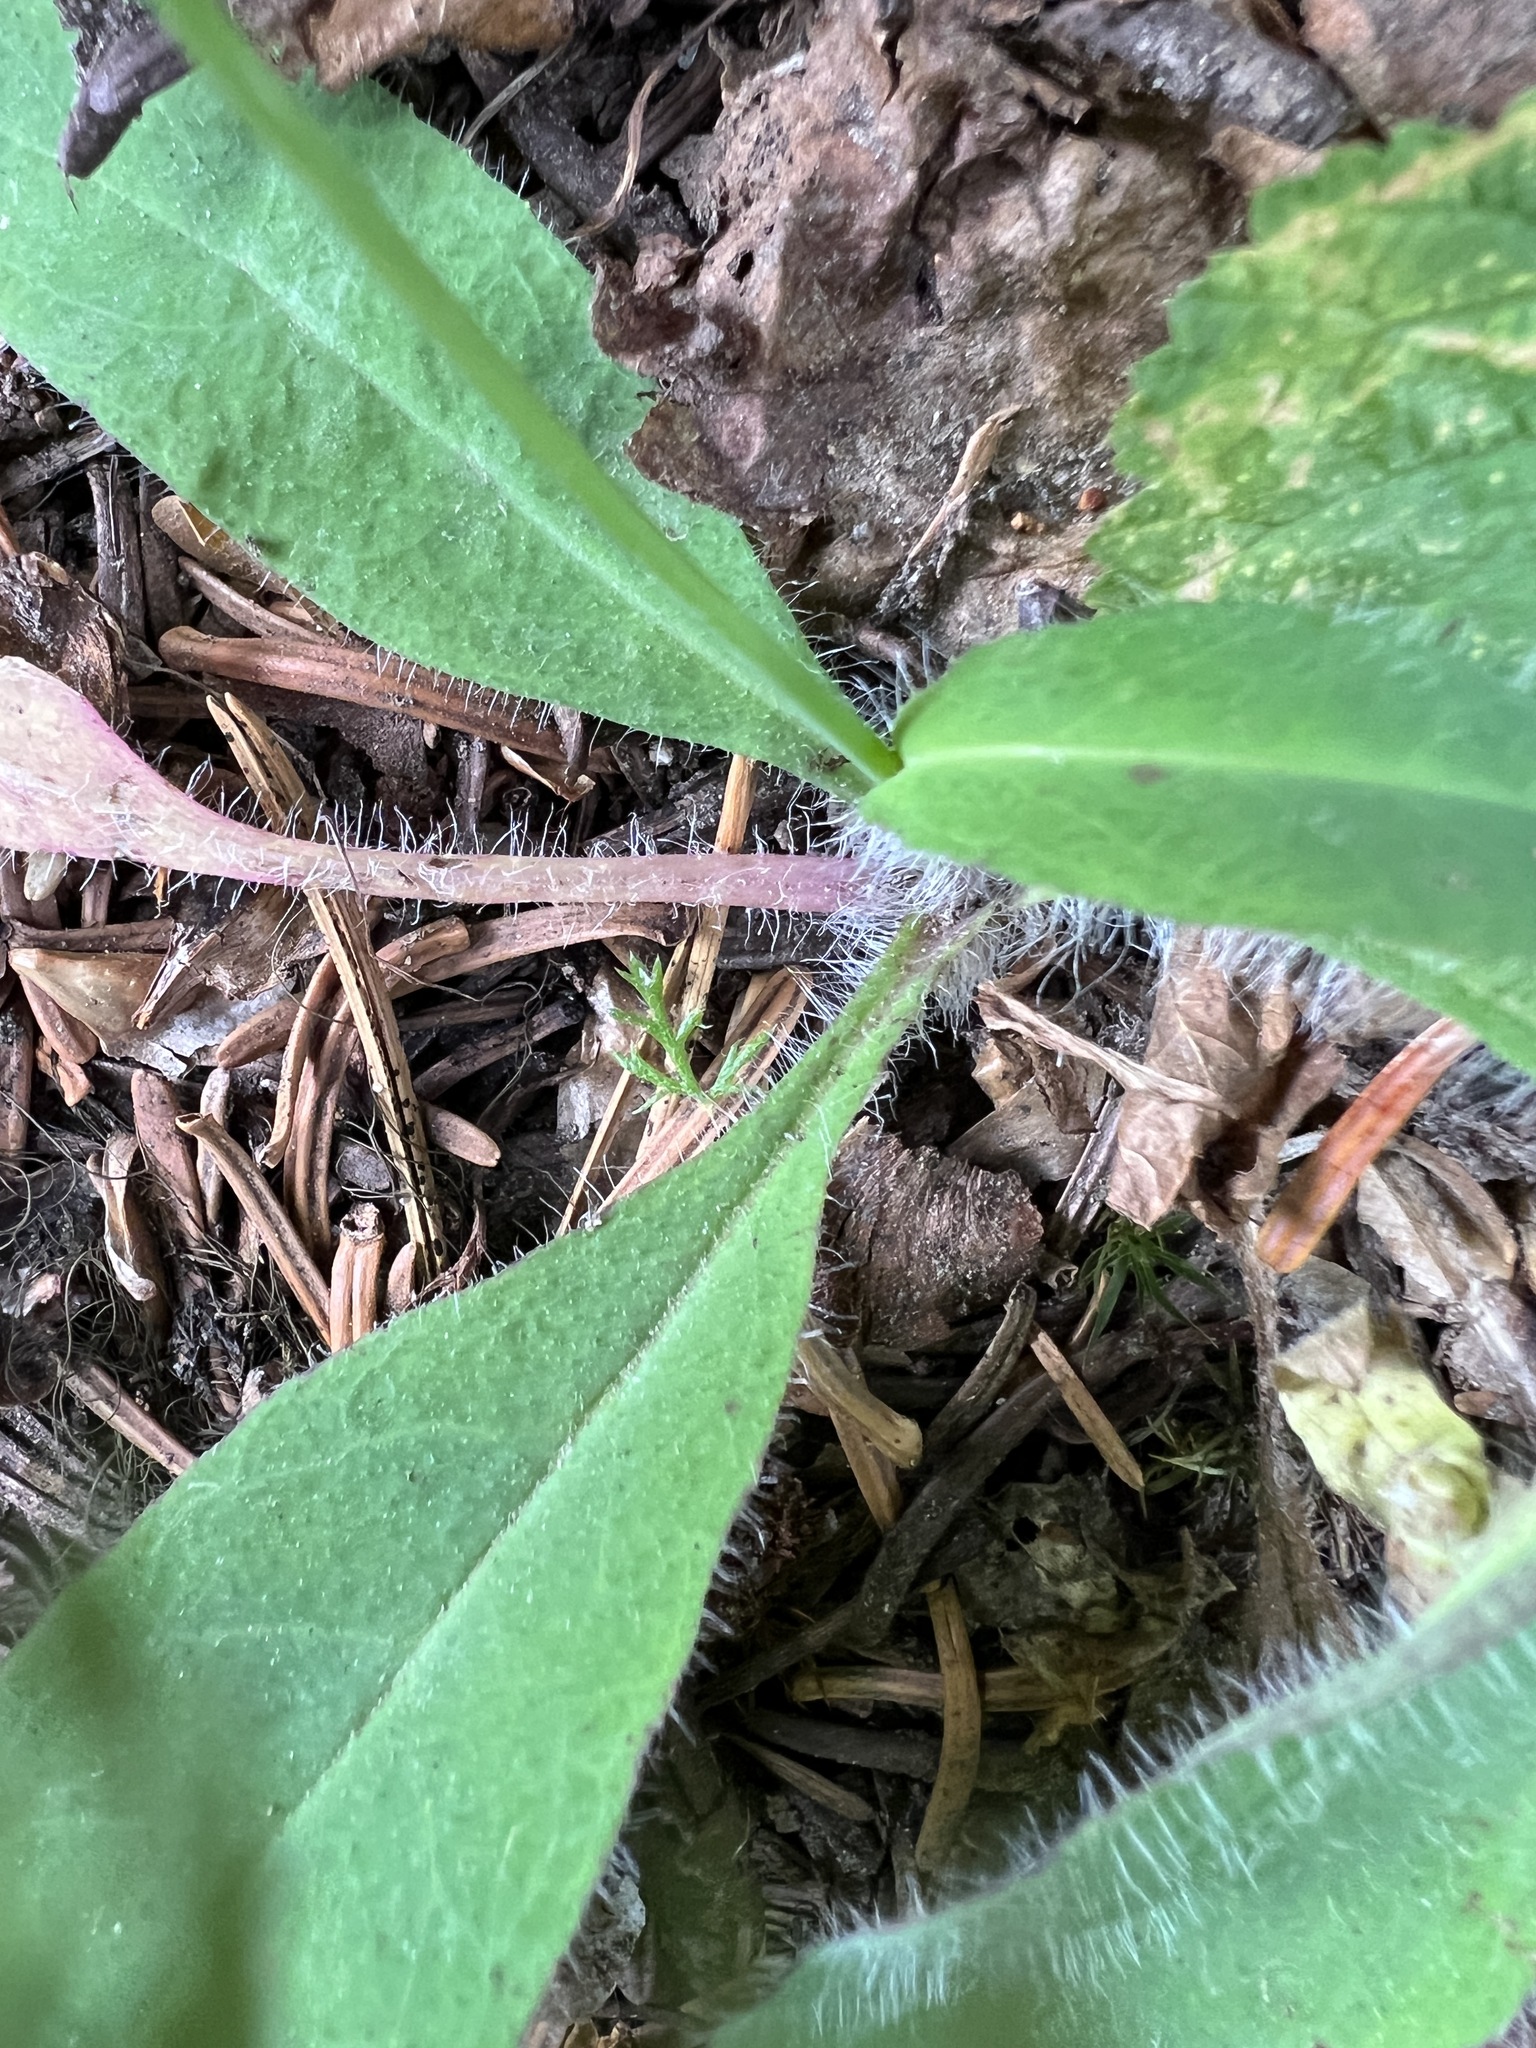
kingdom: Plantae
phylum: Tracheophyta
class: Magnoliopsida
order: Asterales
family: Asteraceae
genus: Hieracium
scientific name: Hieracium albiflorum
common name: White hawkweed
